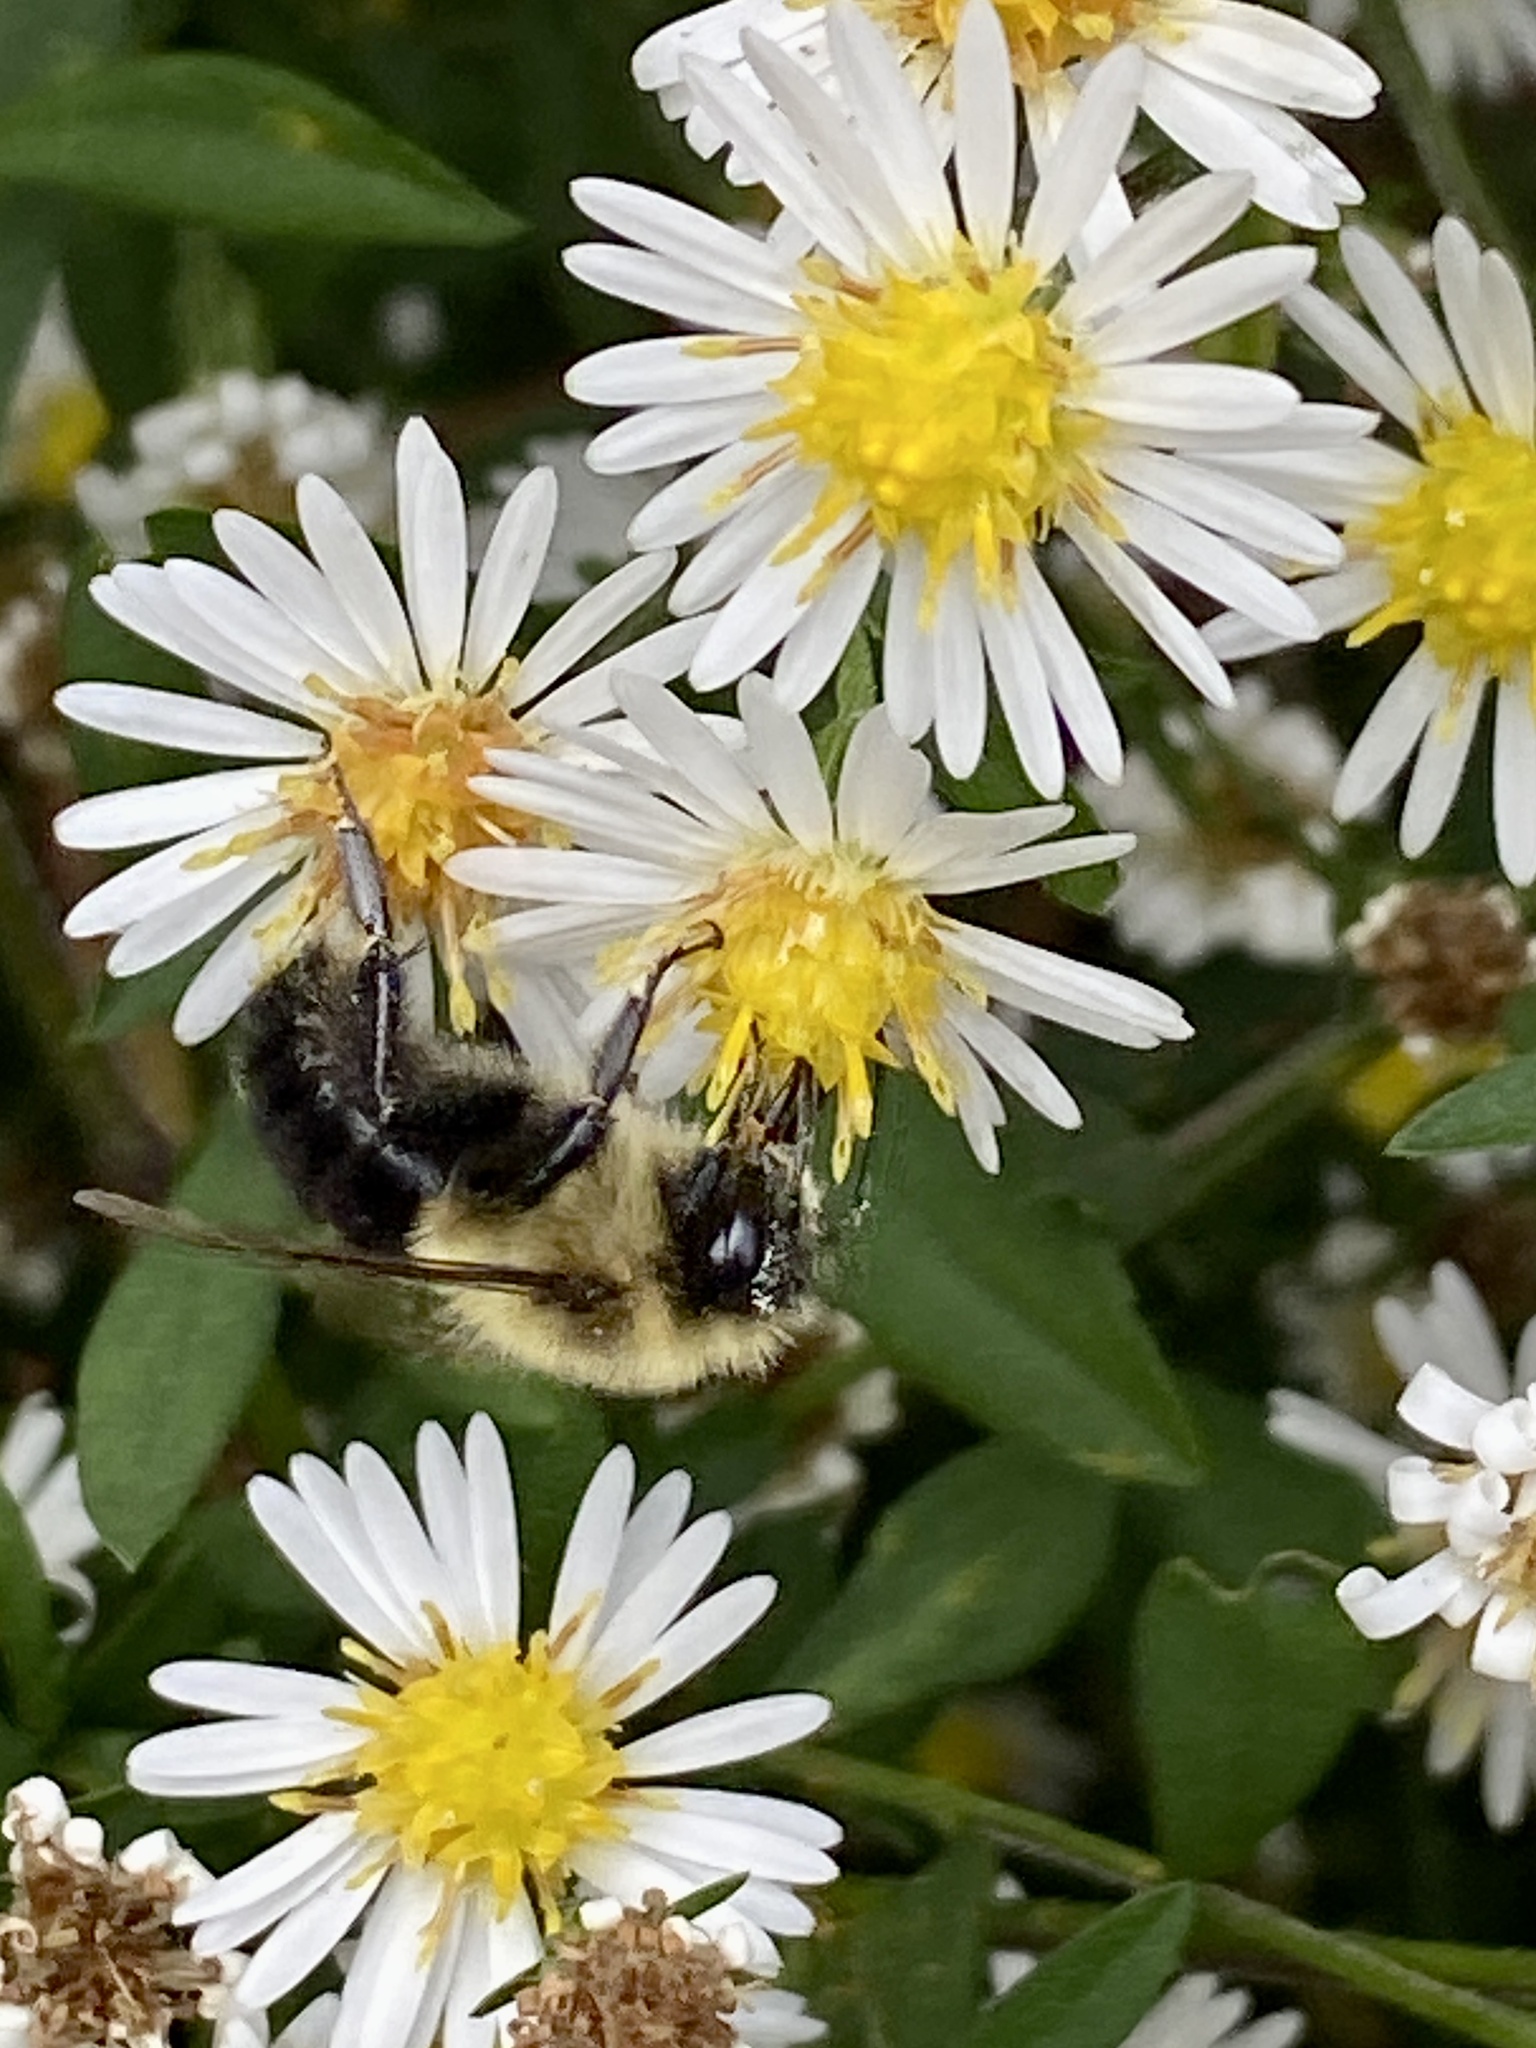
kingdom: Animalia
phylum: Arthropoda
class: Insecta
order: Hymenoptera
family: Apidae
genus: Bombus
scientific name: Bombus impatiens
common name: Common eastern bumble bee
